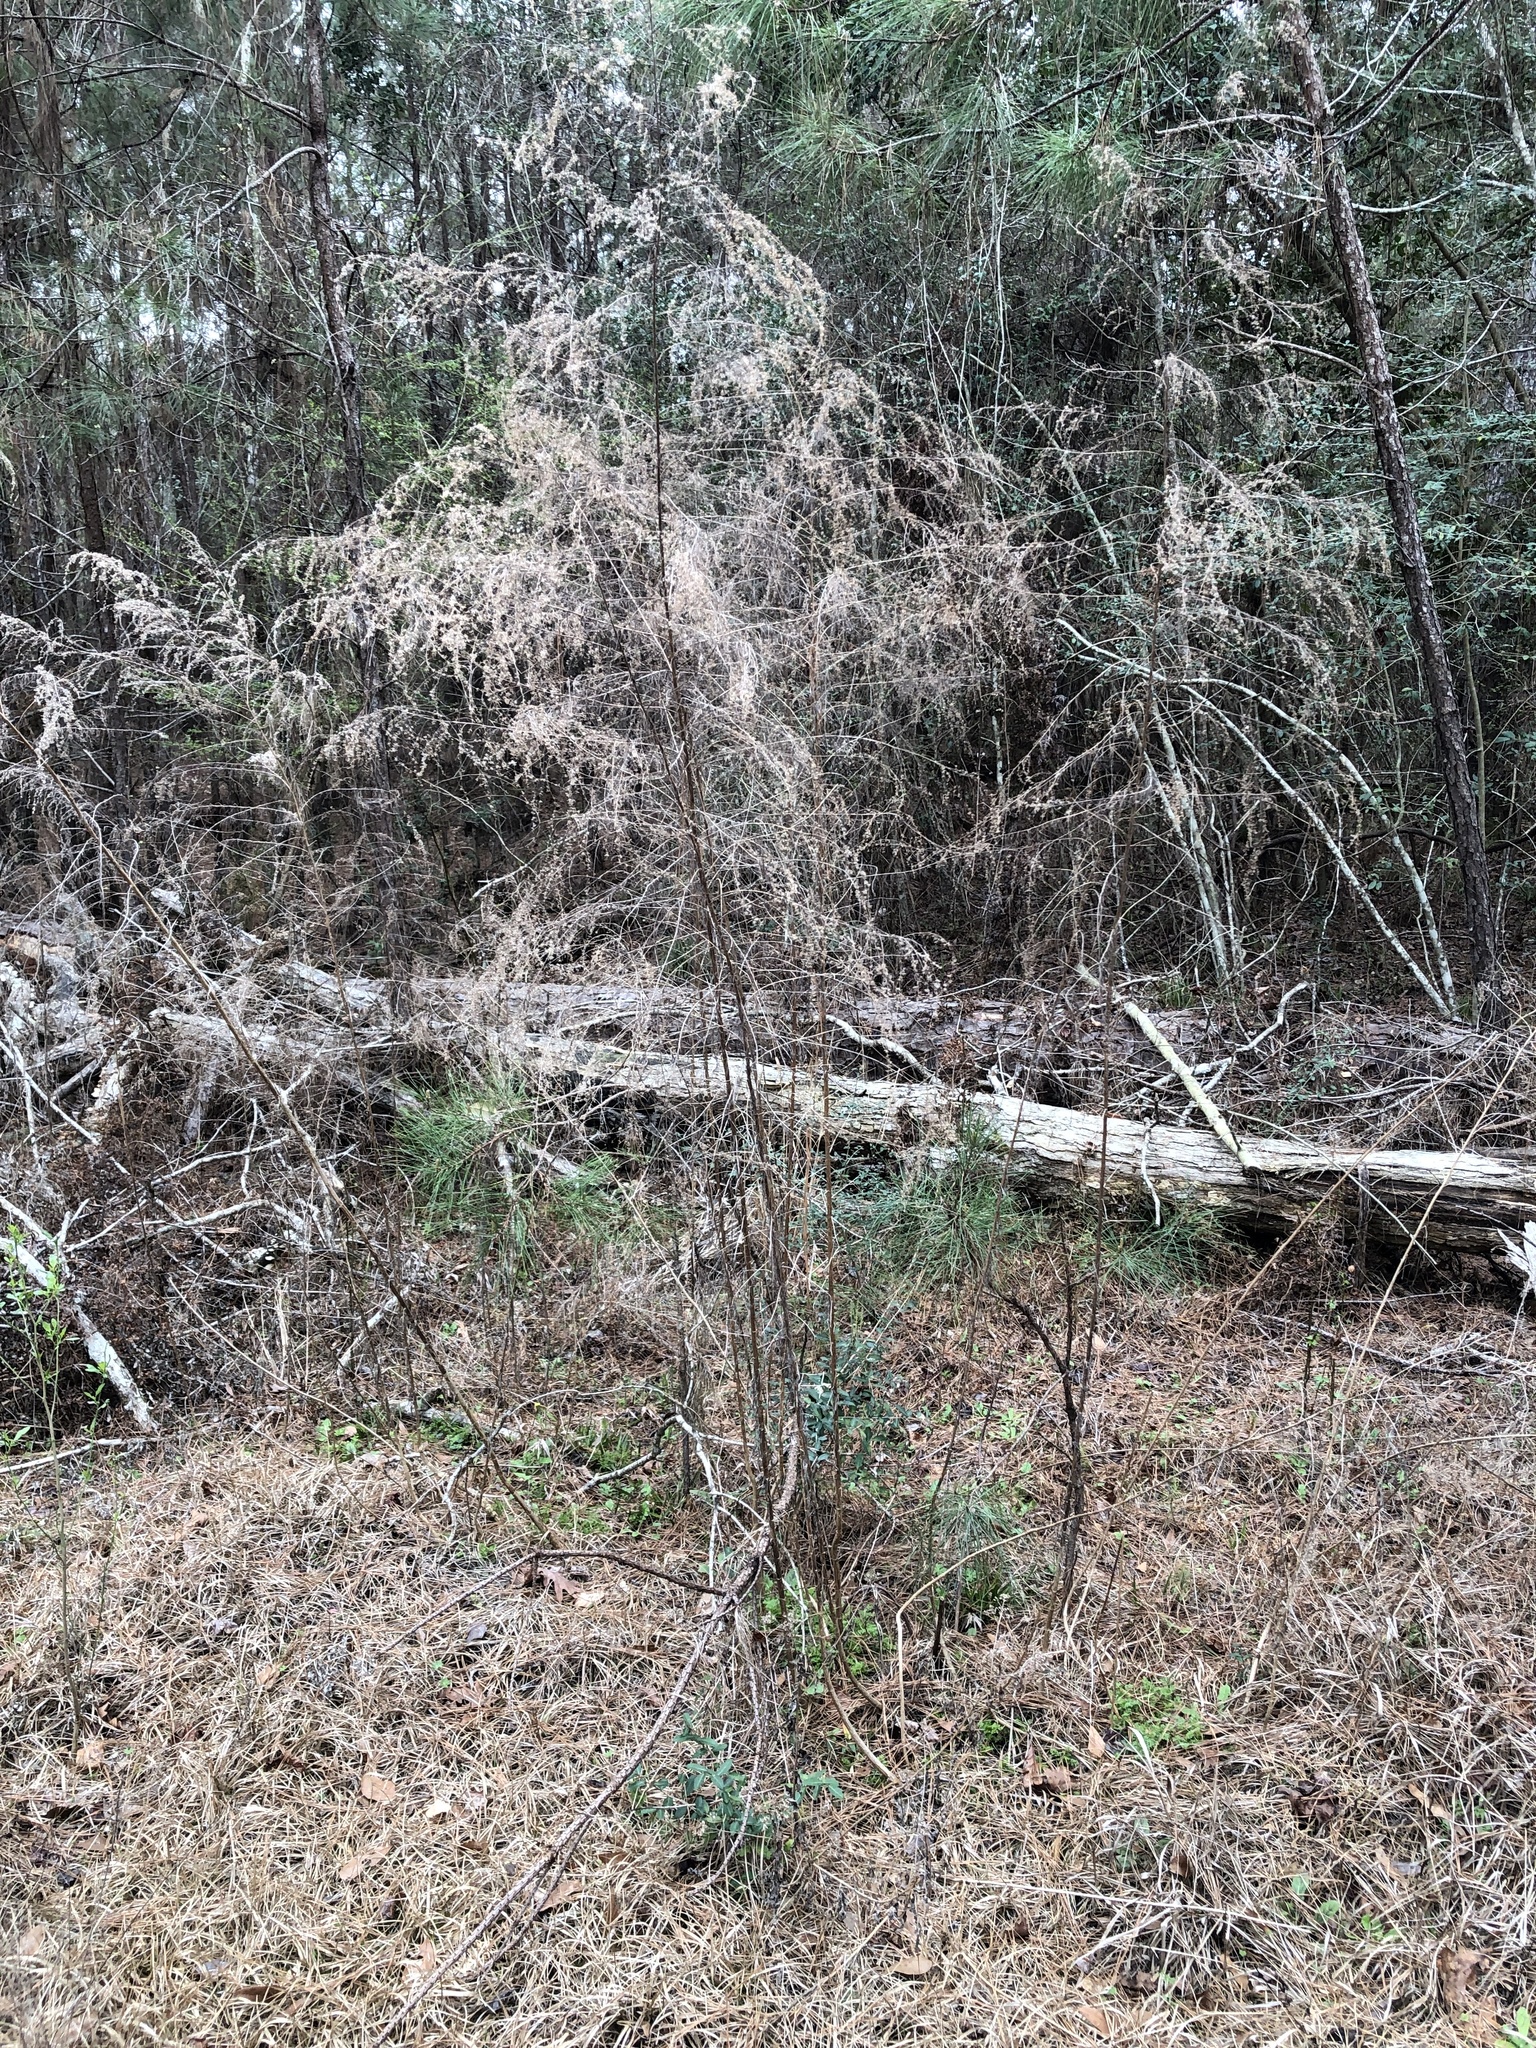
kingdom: Plantae
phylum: Tracheophyta
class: Magnoliopsida
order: Asterales
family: Asteraceae
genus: Eupatorium
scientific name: Eupatorium capillifolium
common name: Dog-fennel
